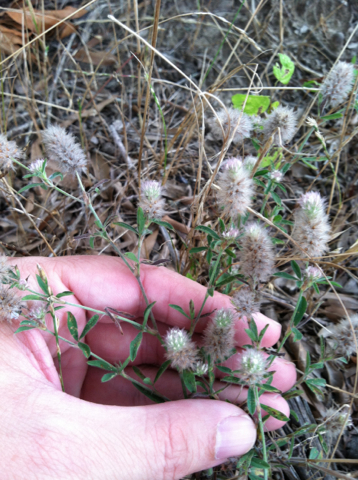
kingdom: Plantae
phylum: Tracheophyta
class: Magnoliopsida
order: Fabales
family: Fabaceae
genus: Trifolium
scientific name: Trifolium arvense
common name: Hare's-foot clover
